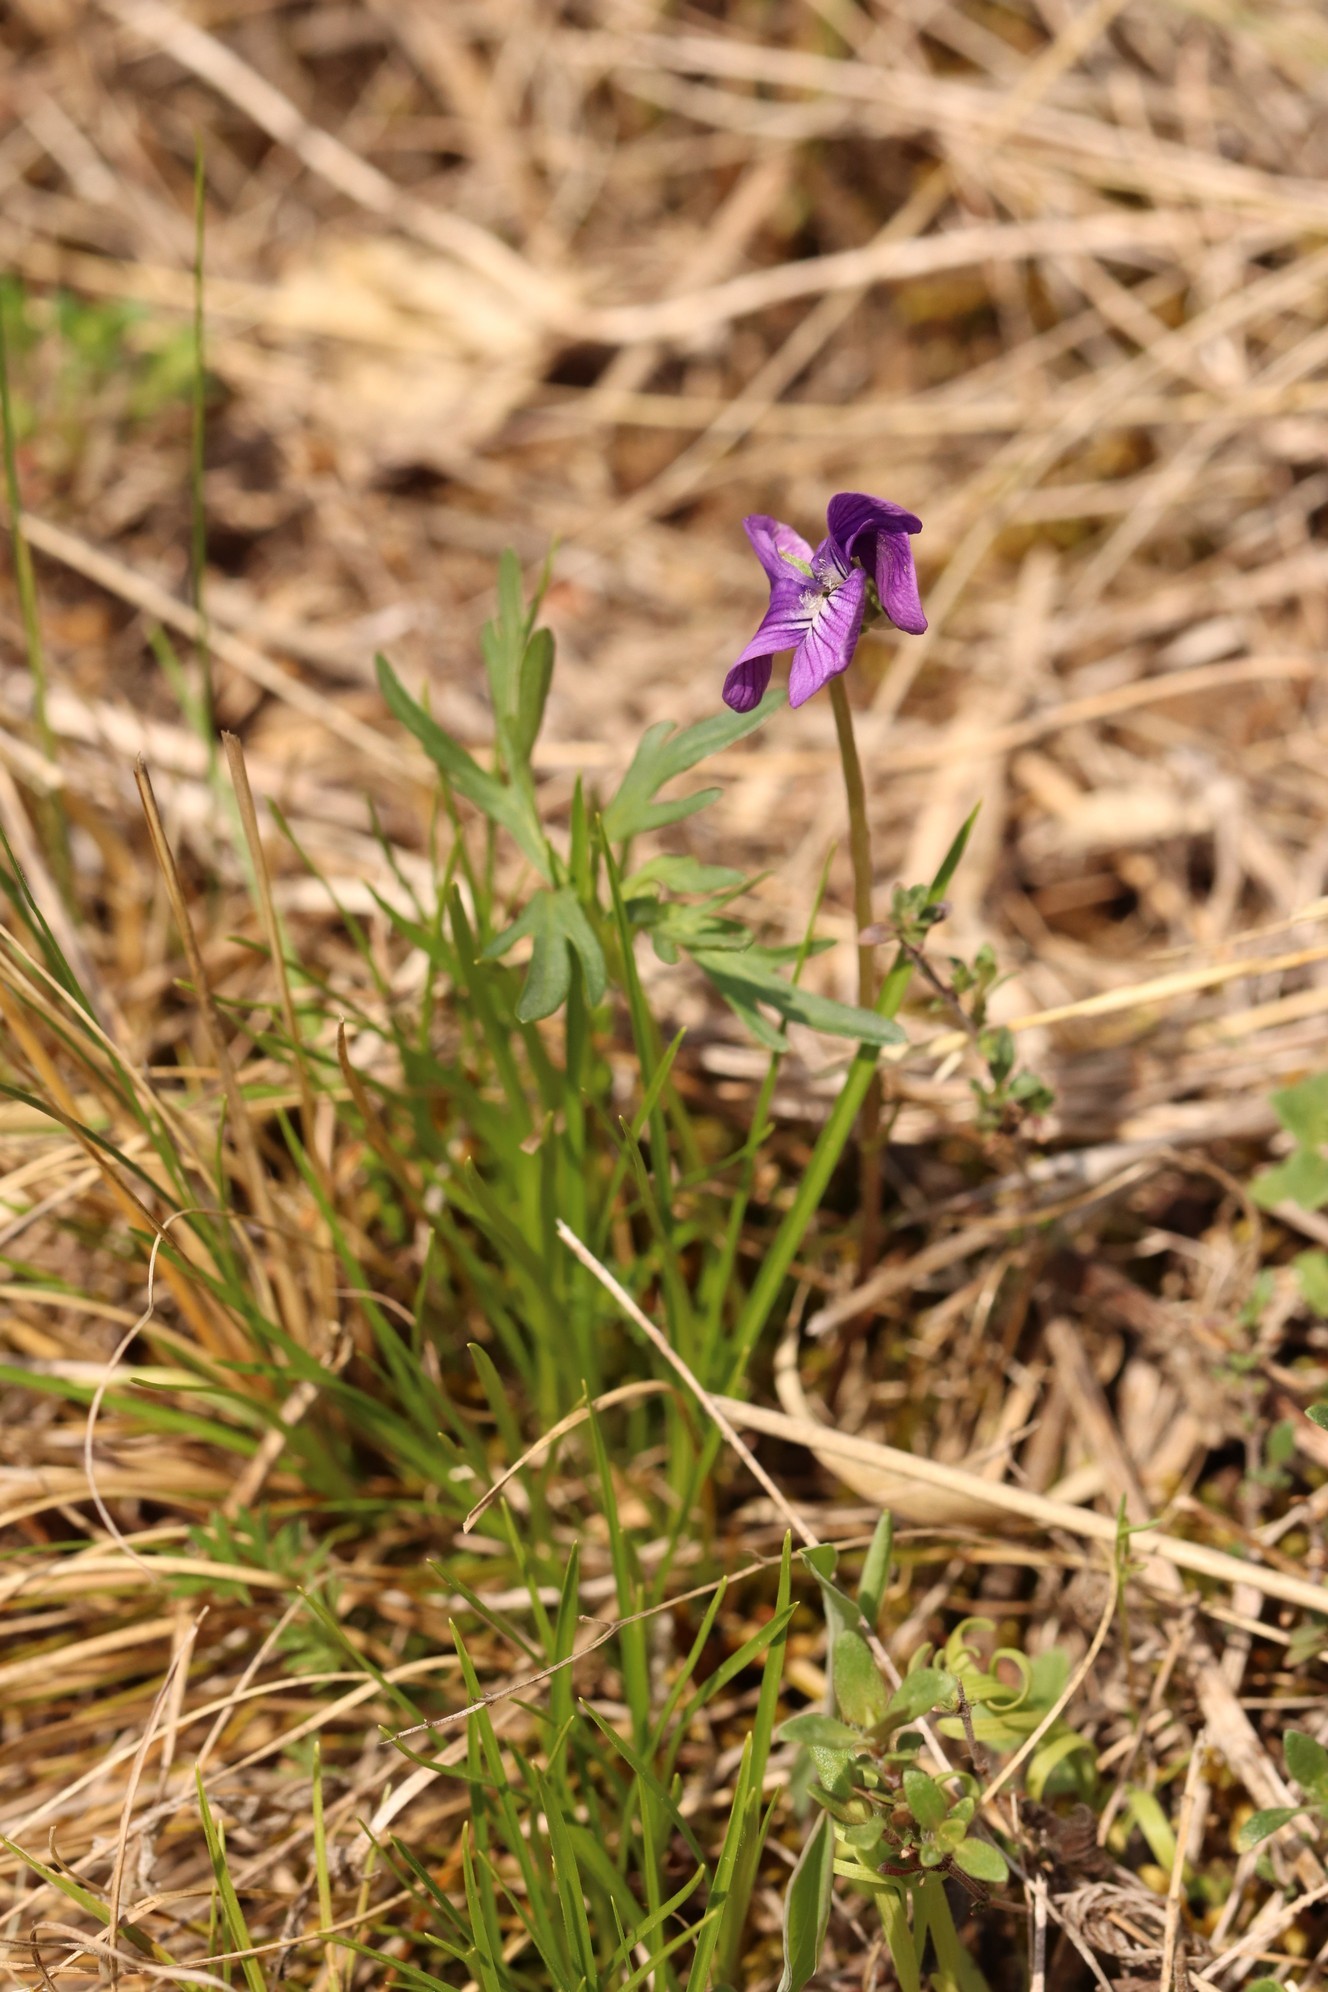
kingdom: Plantae
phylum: Tracheophyta
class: Magnoliopsida
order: Malpighiales
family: Violaceae
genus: Viola
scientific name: Viola multifida
